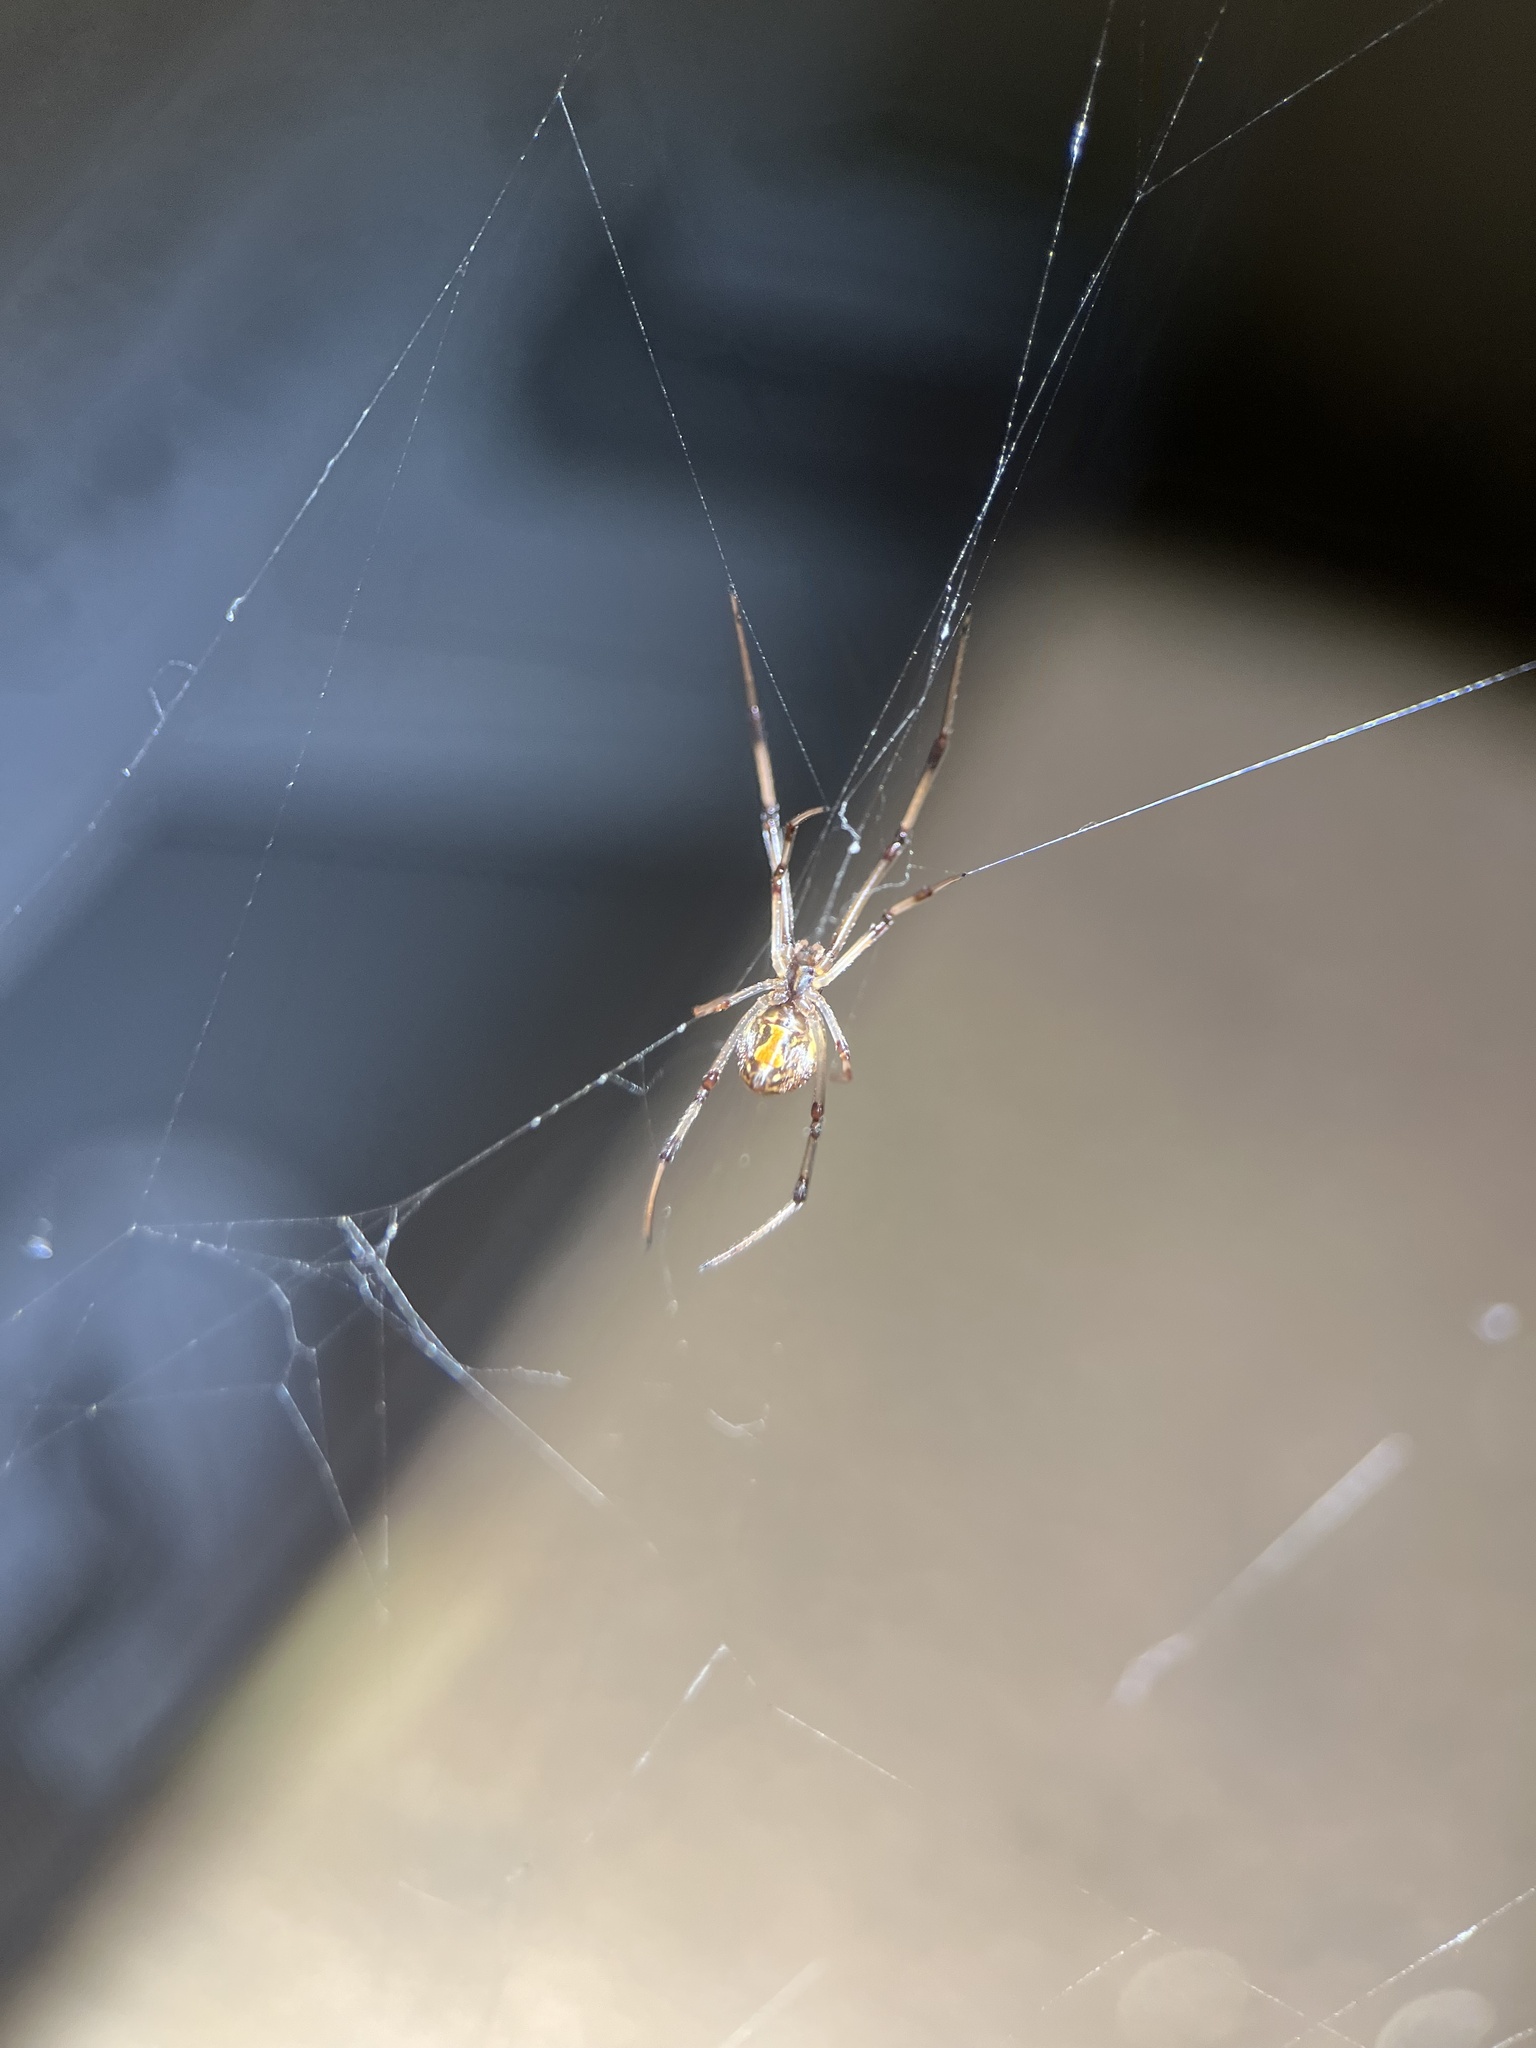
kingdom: Animalia
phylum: Arthropoda
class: Arachnida
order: Araneae
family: Theridiidae
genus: Latrodectus
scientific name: Latrodectus geometricus
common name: Brown widow spider
